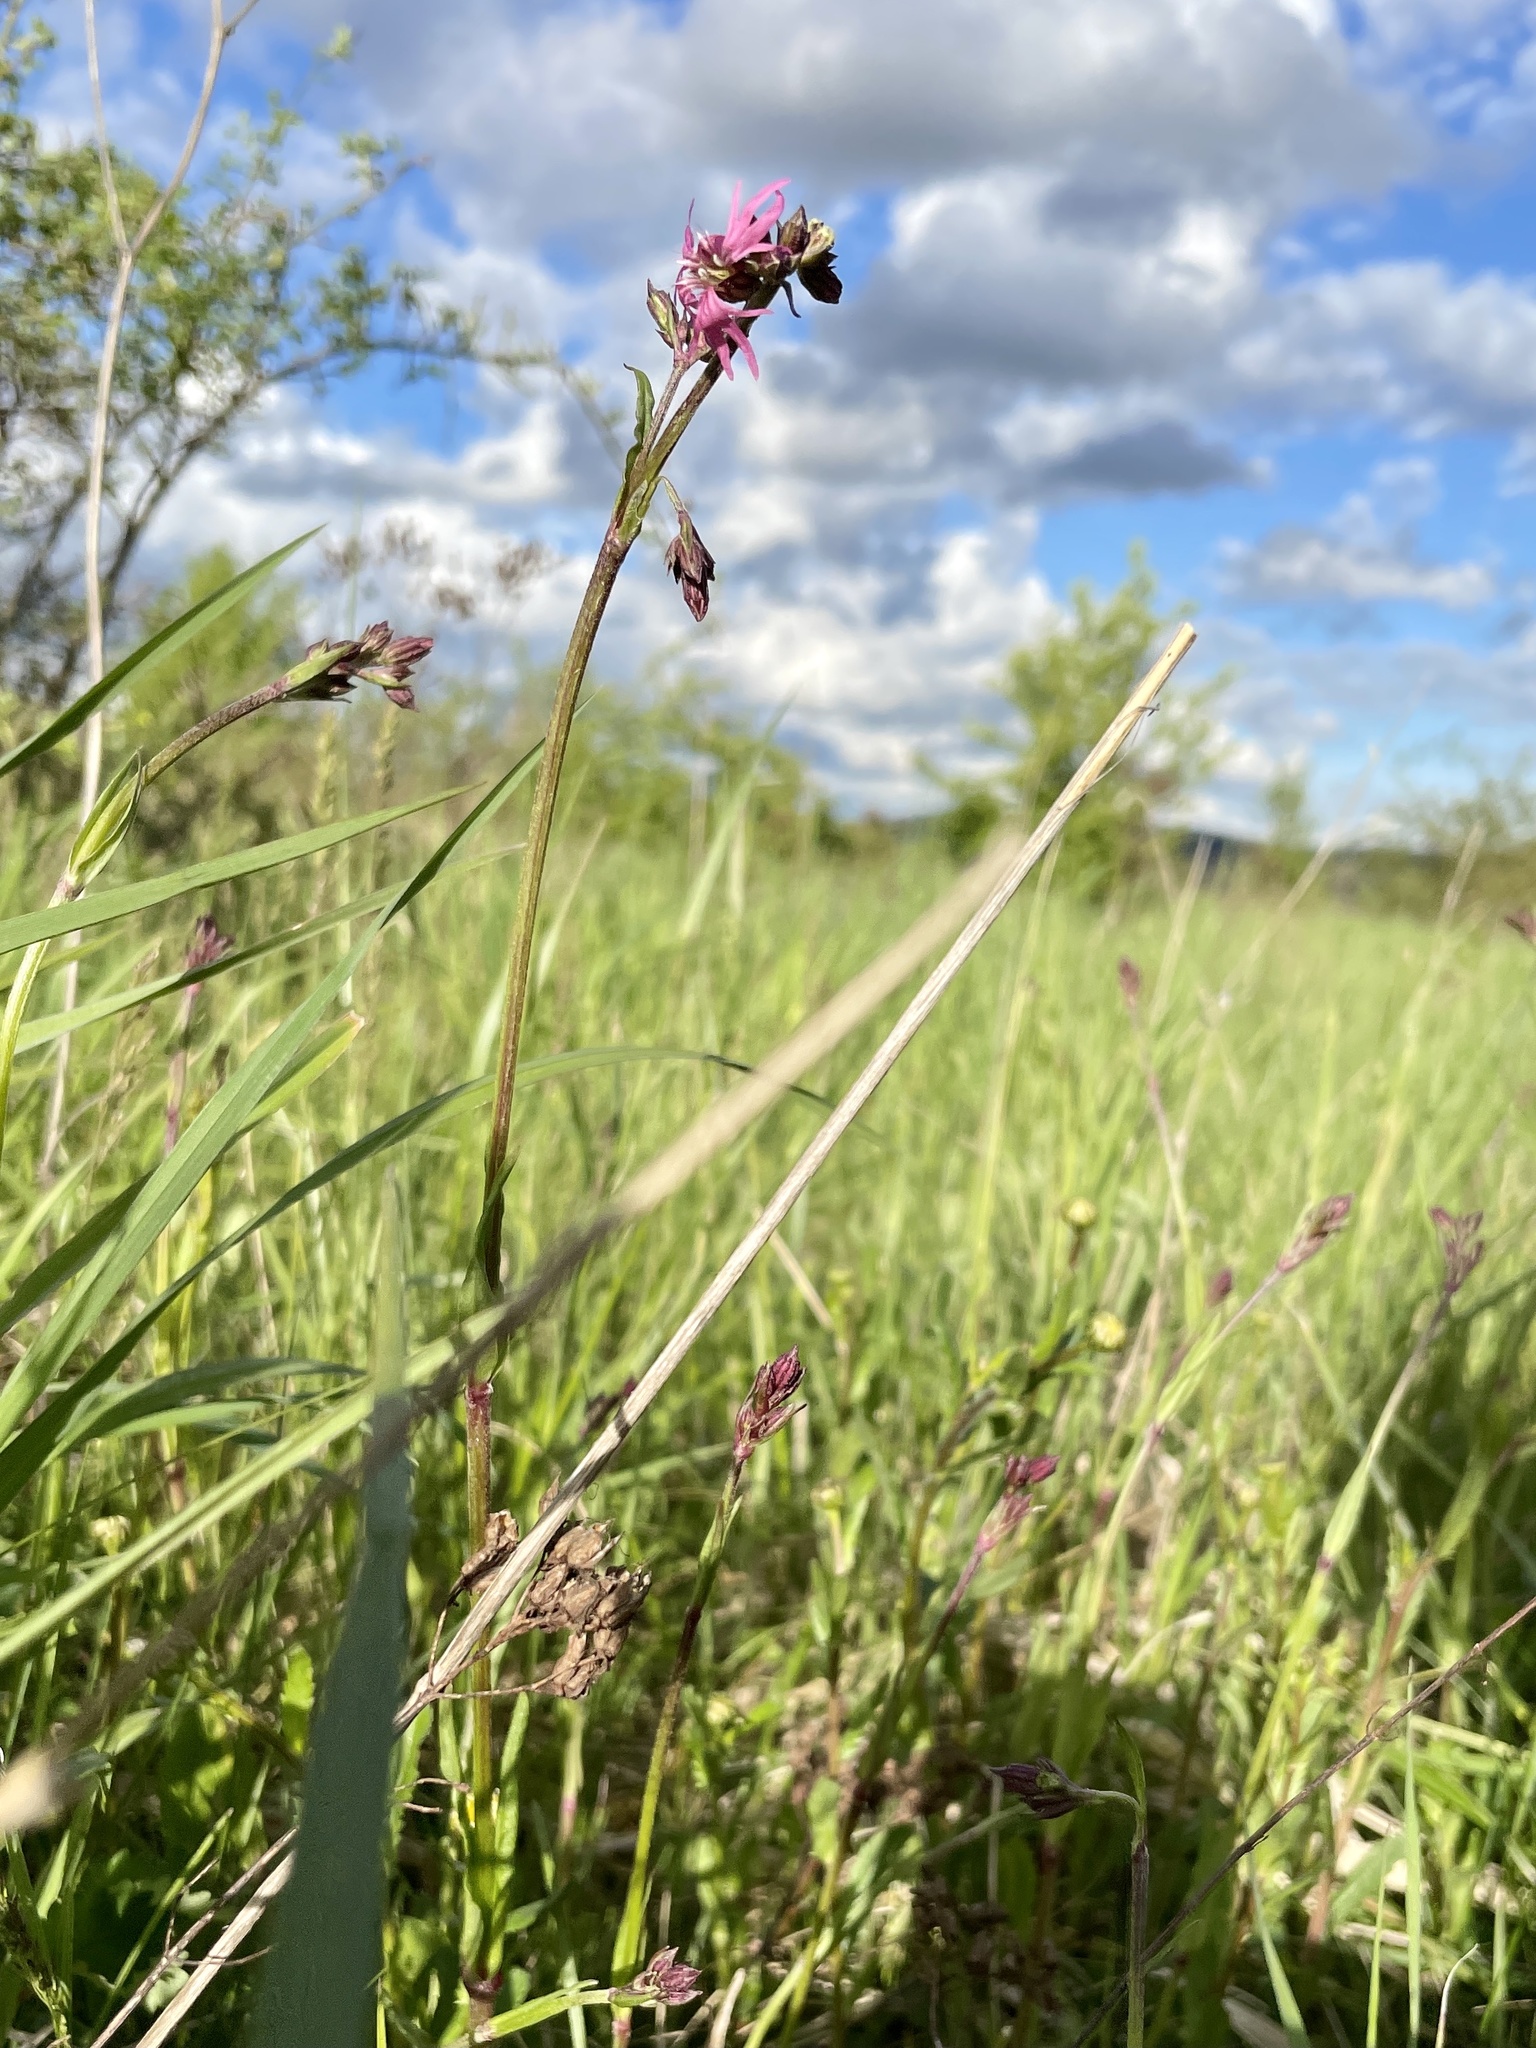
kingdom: Plantae
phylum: Tracheophyta
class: Magnoliopsida
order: Caryophyllales
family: Caryophyllaceae
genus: Silene
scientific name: Silene flos-cuculi
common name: Ragged-robin
